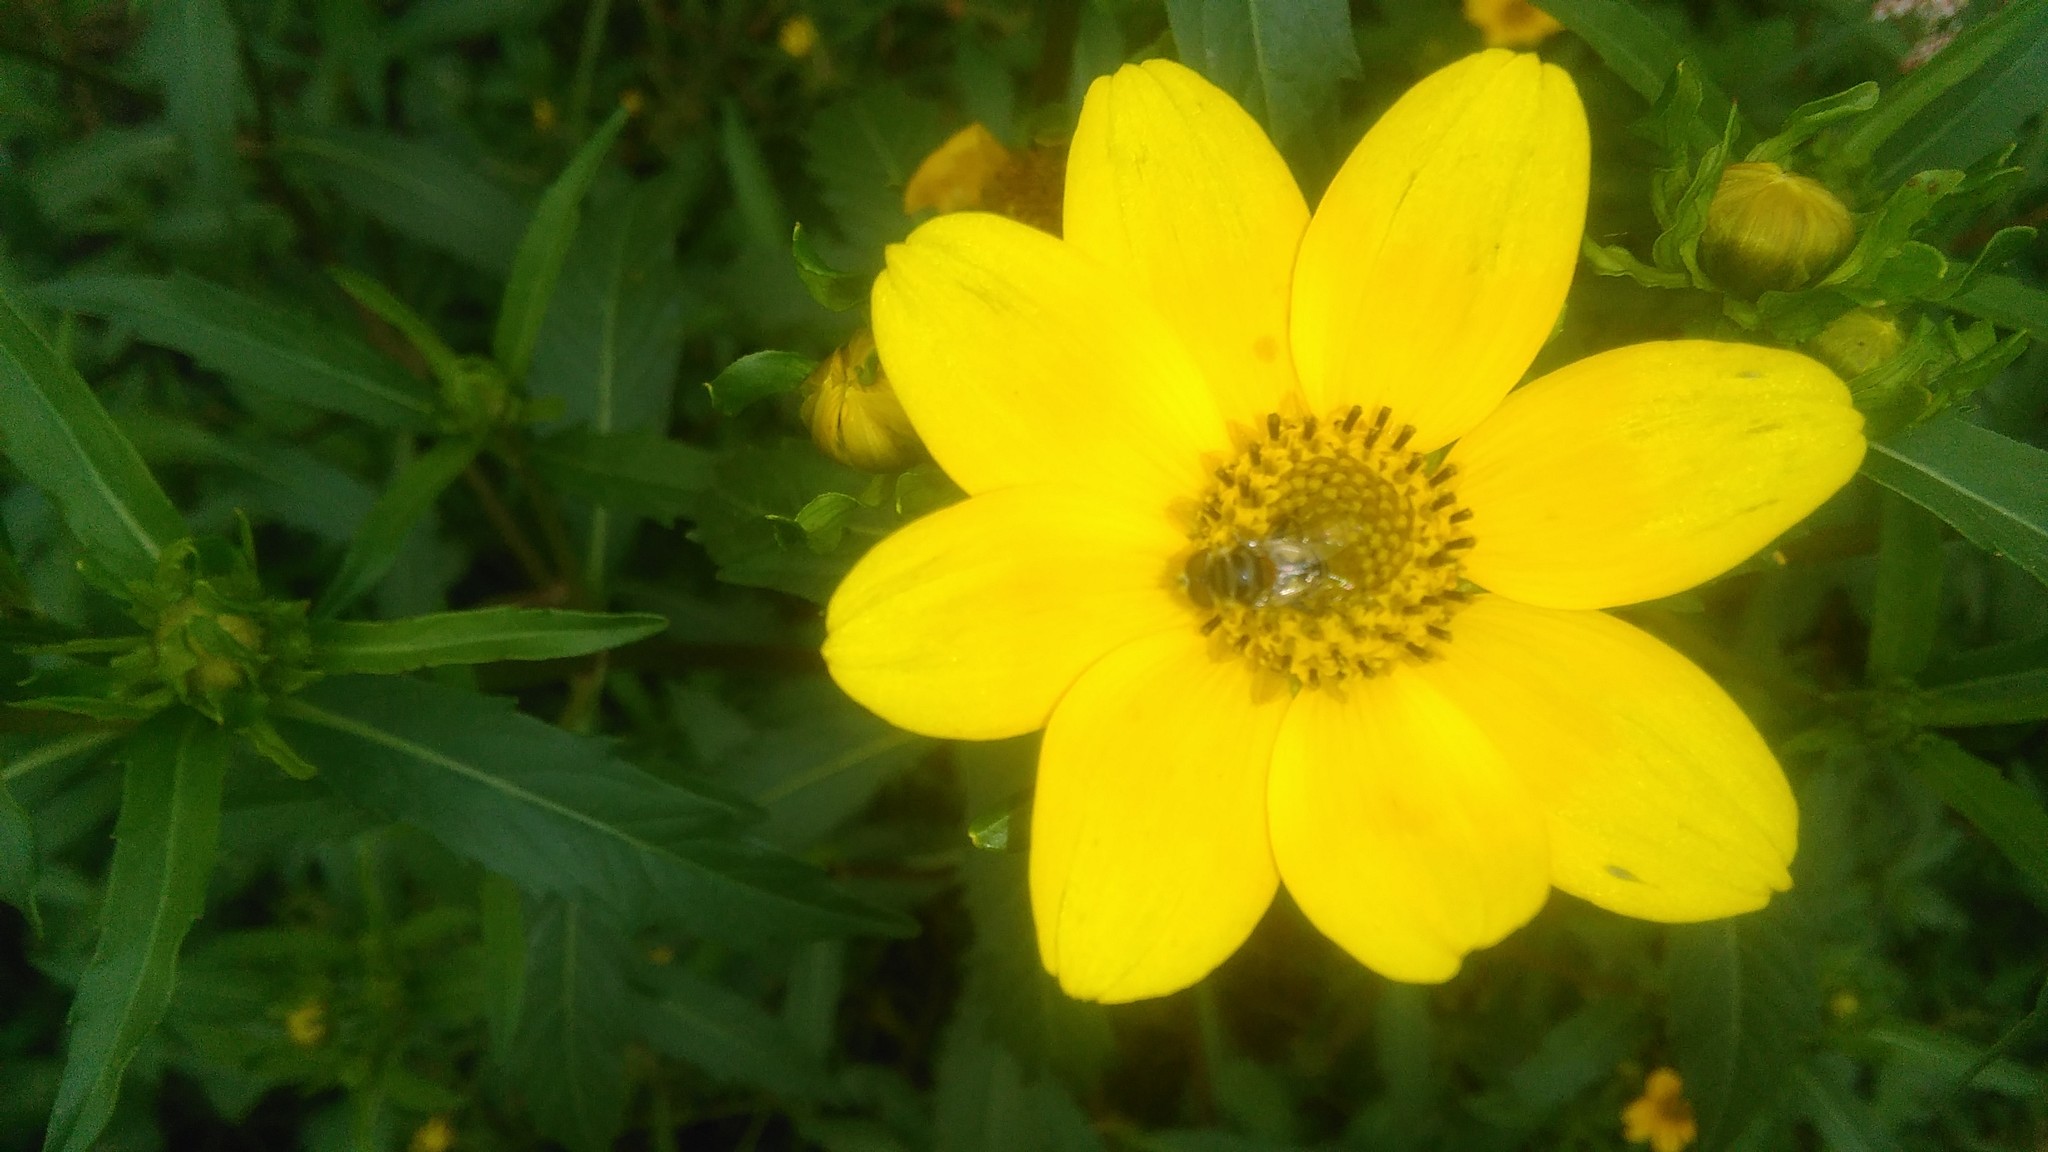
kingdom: Plantae
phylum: Tracheophyta
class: Magnoliopsida
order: Asterales
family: Asteraceae
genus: Bidens
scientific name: Bidens laevis
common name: Larger bur-marigold
